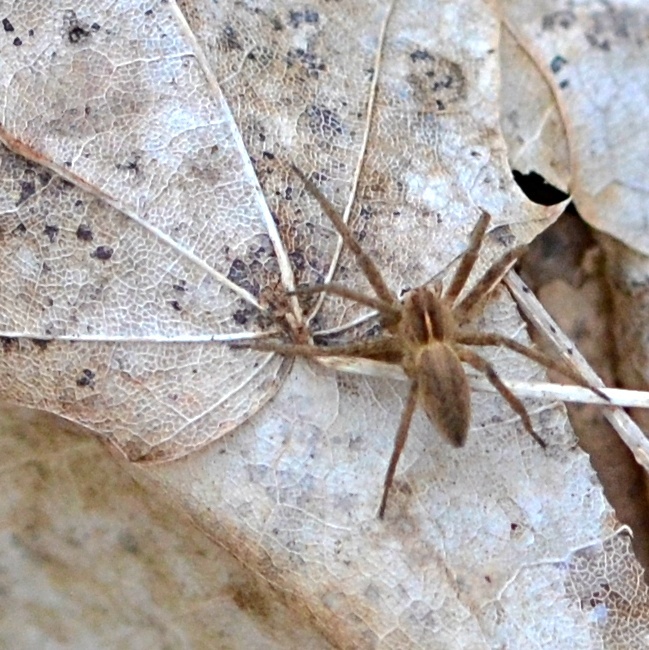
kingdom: Animalia
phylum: Arthropoda
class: Arachnida
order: Araneae
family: Pisauridae
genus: Pisaura
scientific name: Pisaura mirabilis
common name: Tent spider
